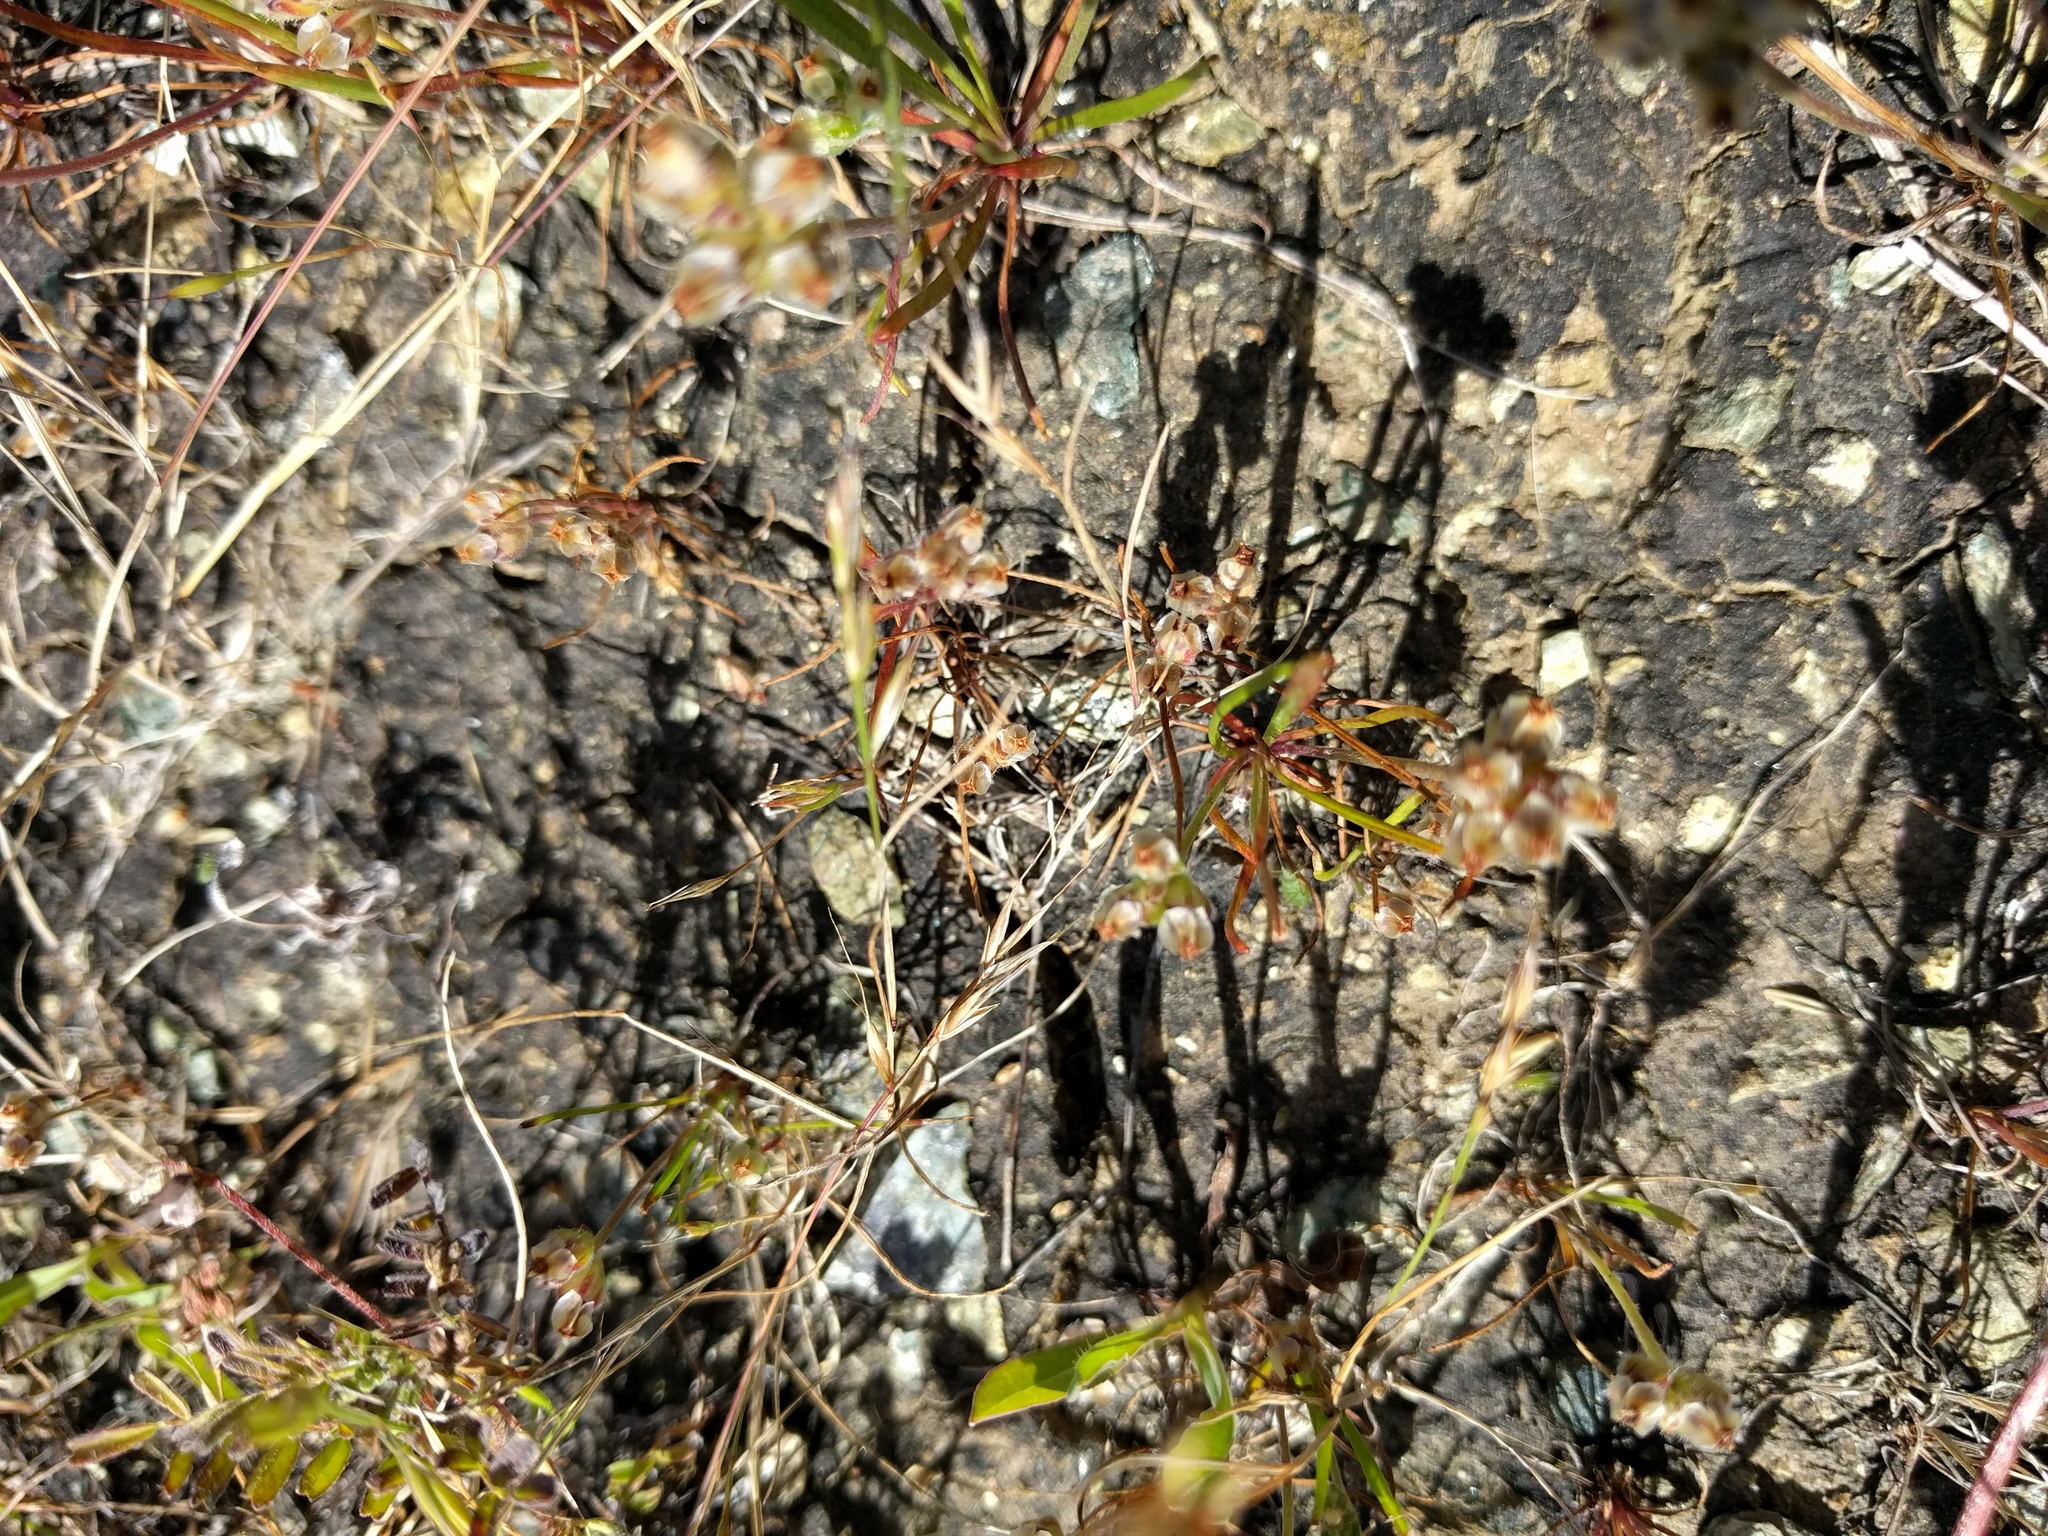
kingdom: Plantae
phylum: Tracheophyta
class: Magnoliopsida
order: Lamiales
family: Plantaginaceae
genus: Plantago
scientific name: Plantago erecta
